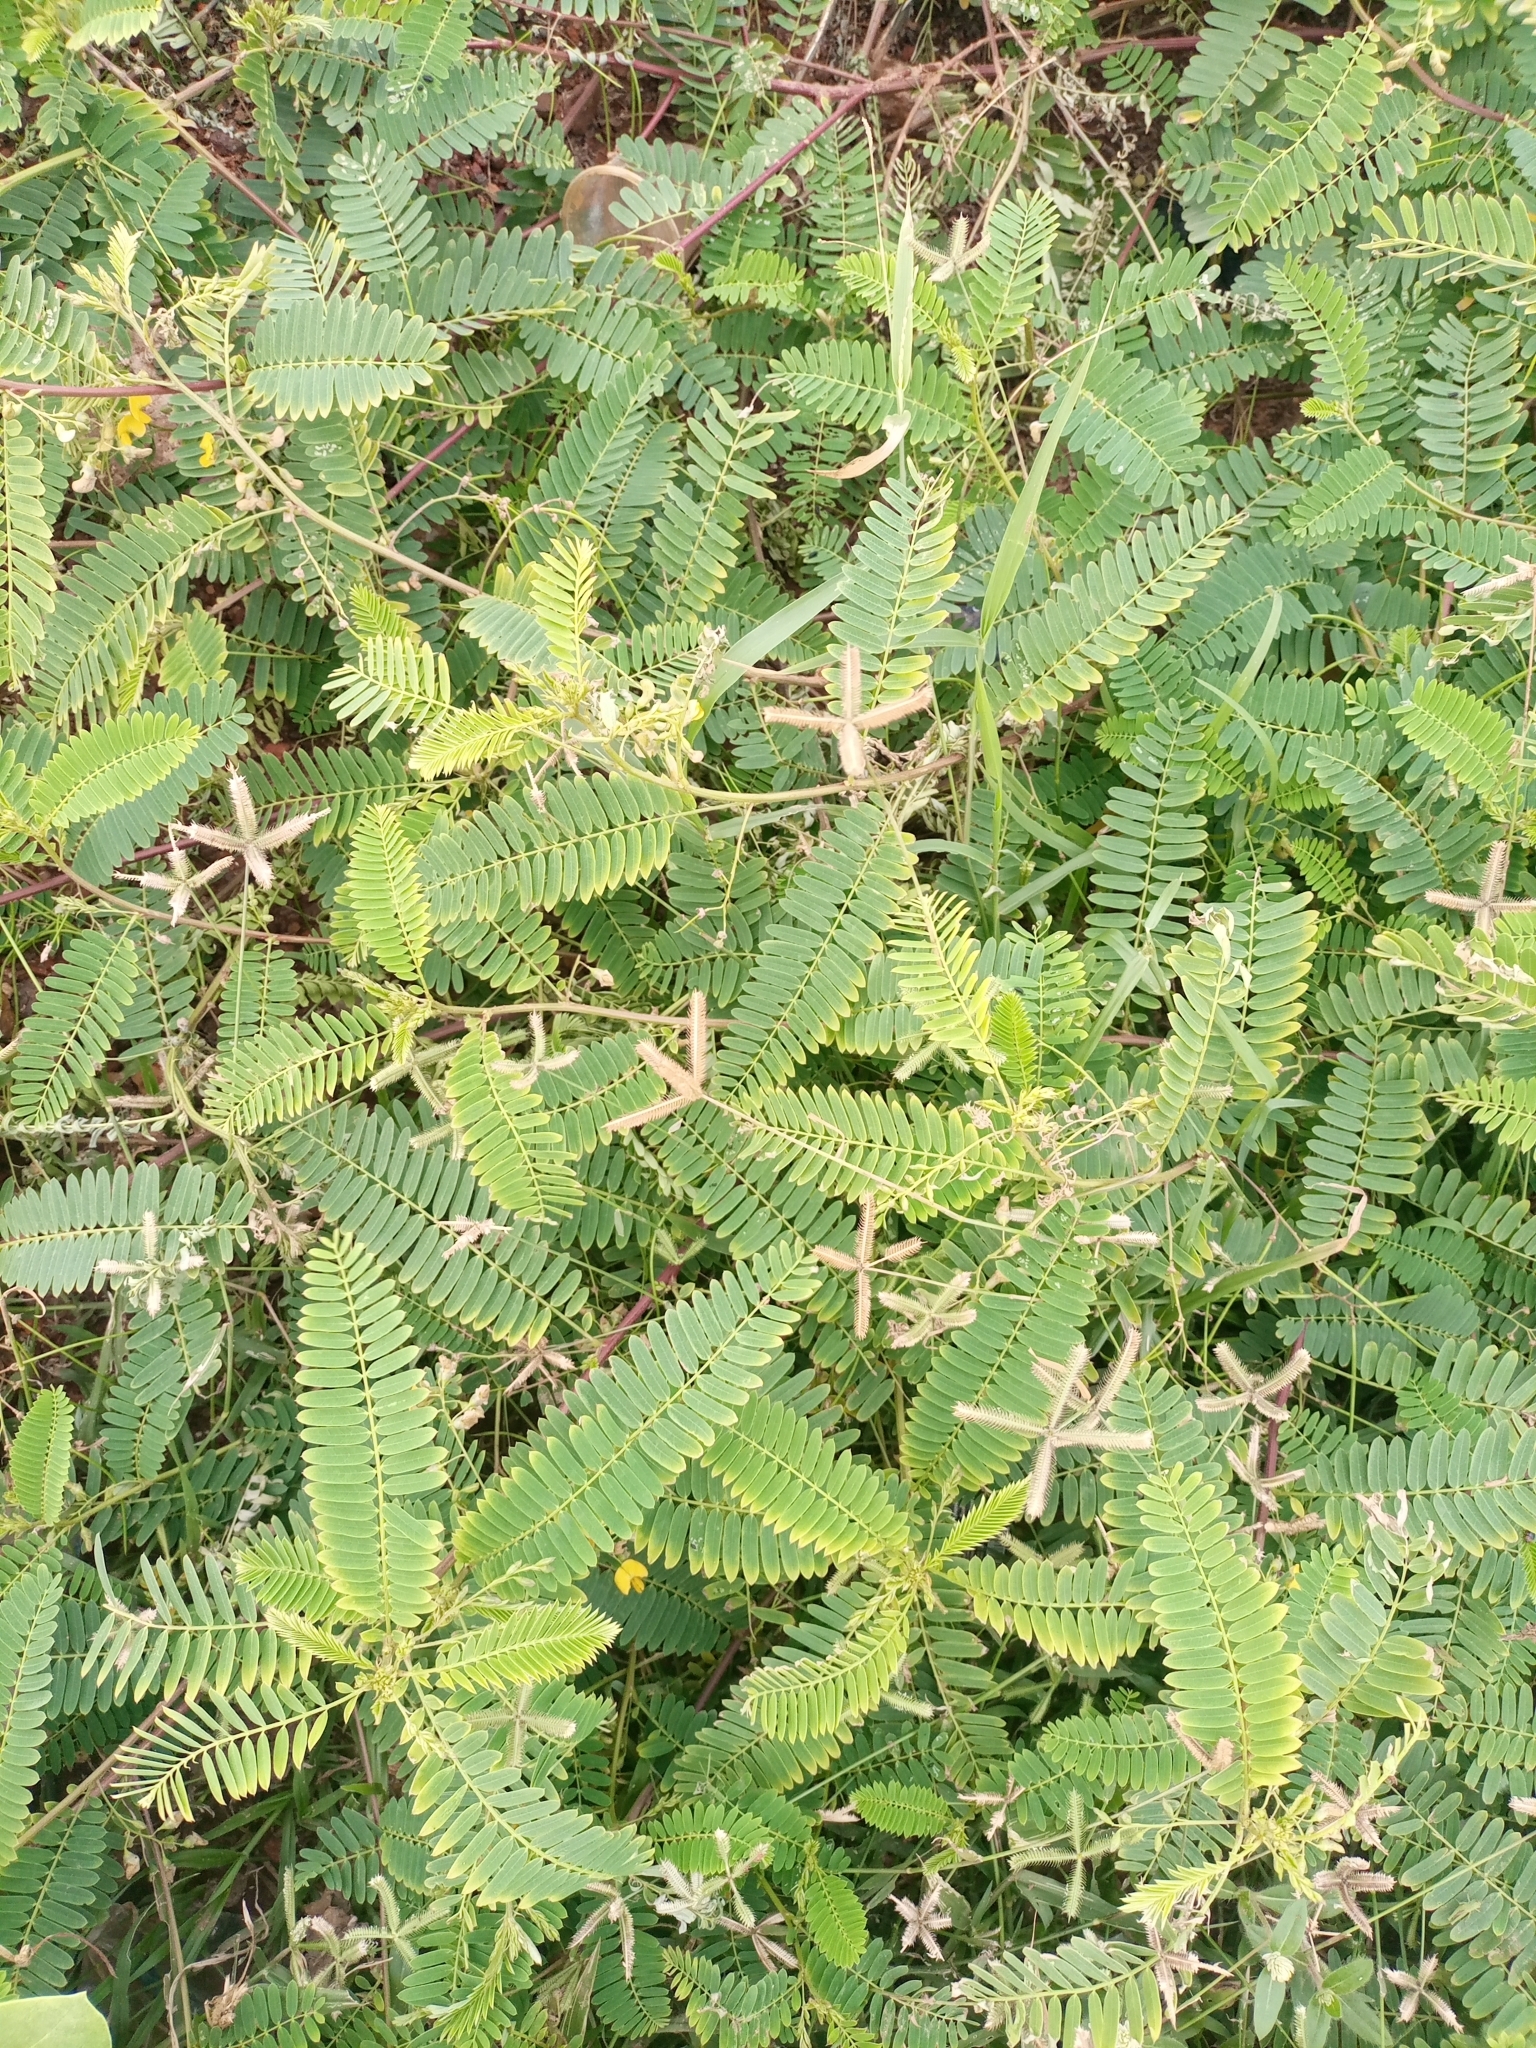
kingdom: Plantae
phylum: Tracheophyta
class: Magnoliopsida
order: Fabales
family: Fabaceae
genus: Mimosa
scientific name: Mimosa pudica
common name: Sensitive plant
